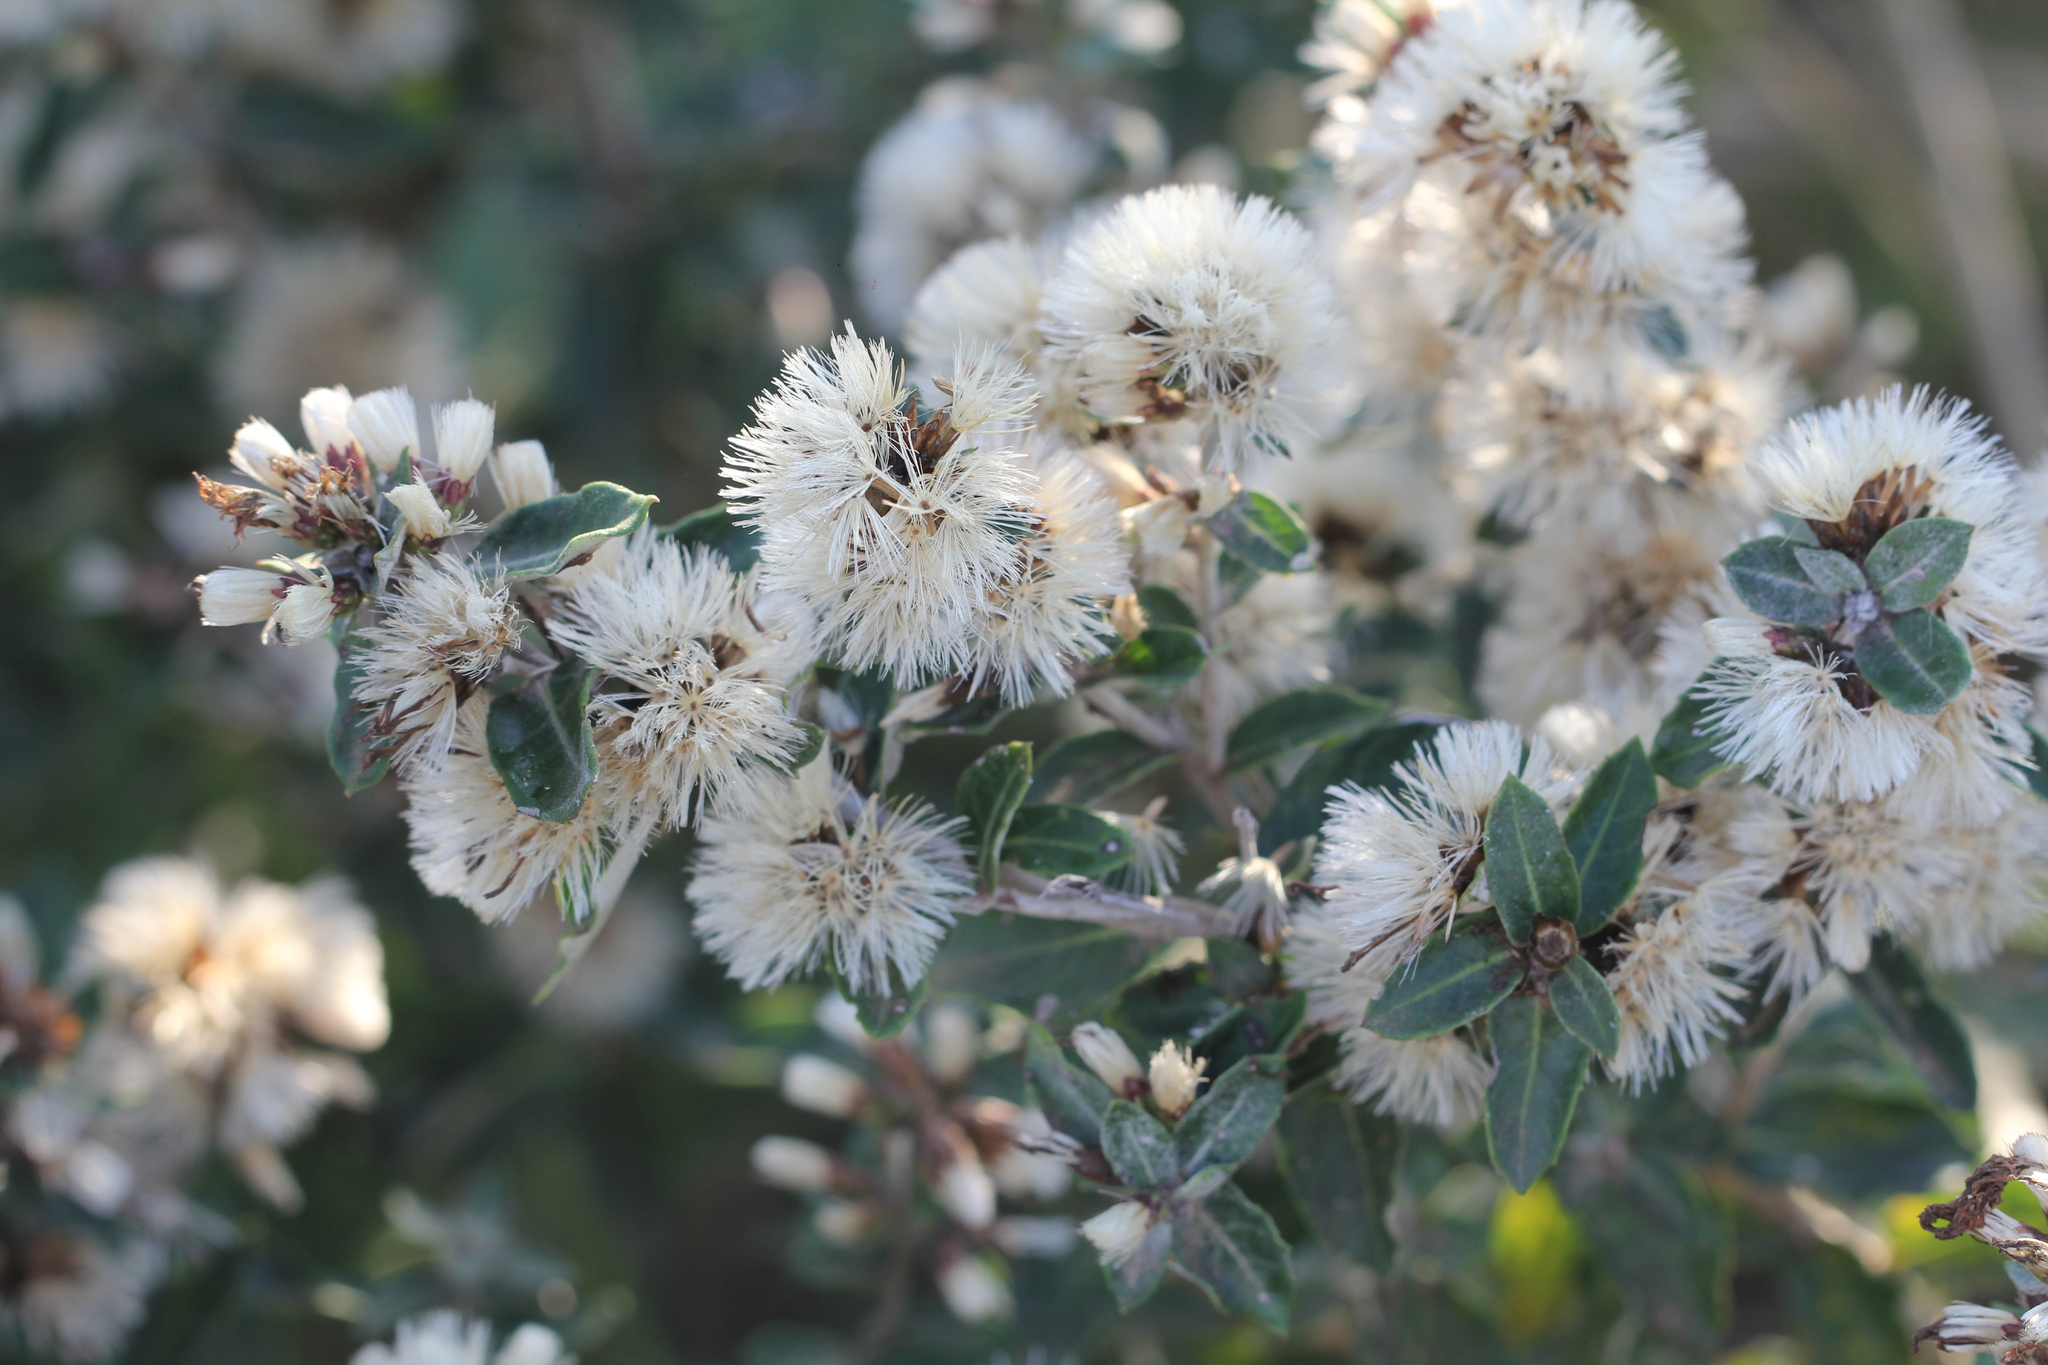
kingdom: Plantae
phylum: Tracheophyta
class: Magnoliopsida
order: Asterales
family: Asteraceae
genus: Vernonanthura
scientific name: Vernonanthura chamaedrys
